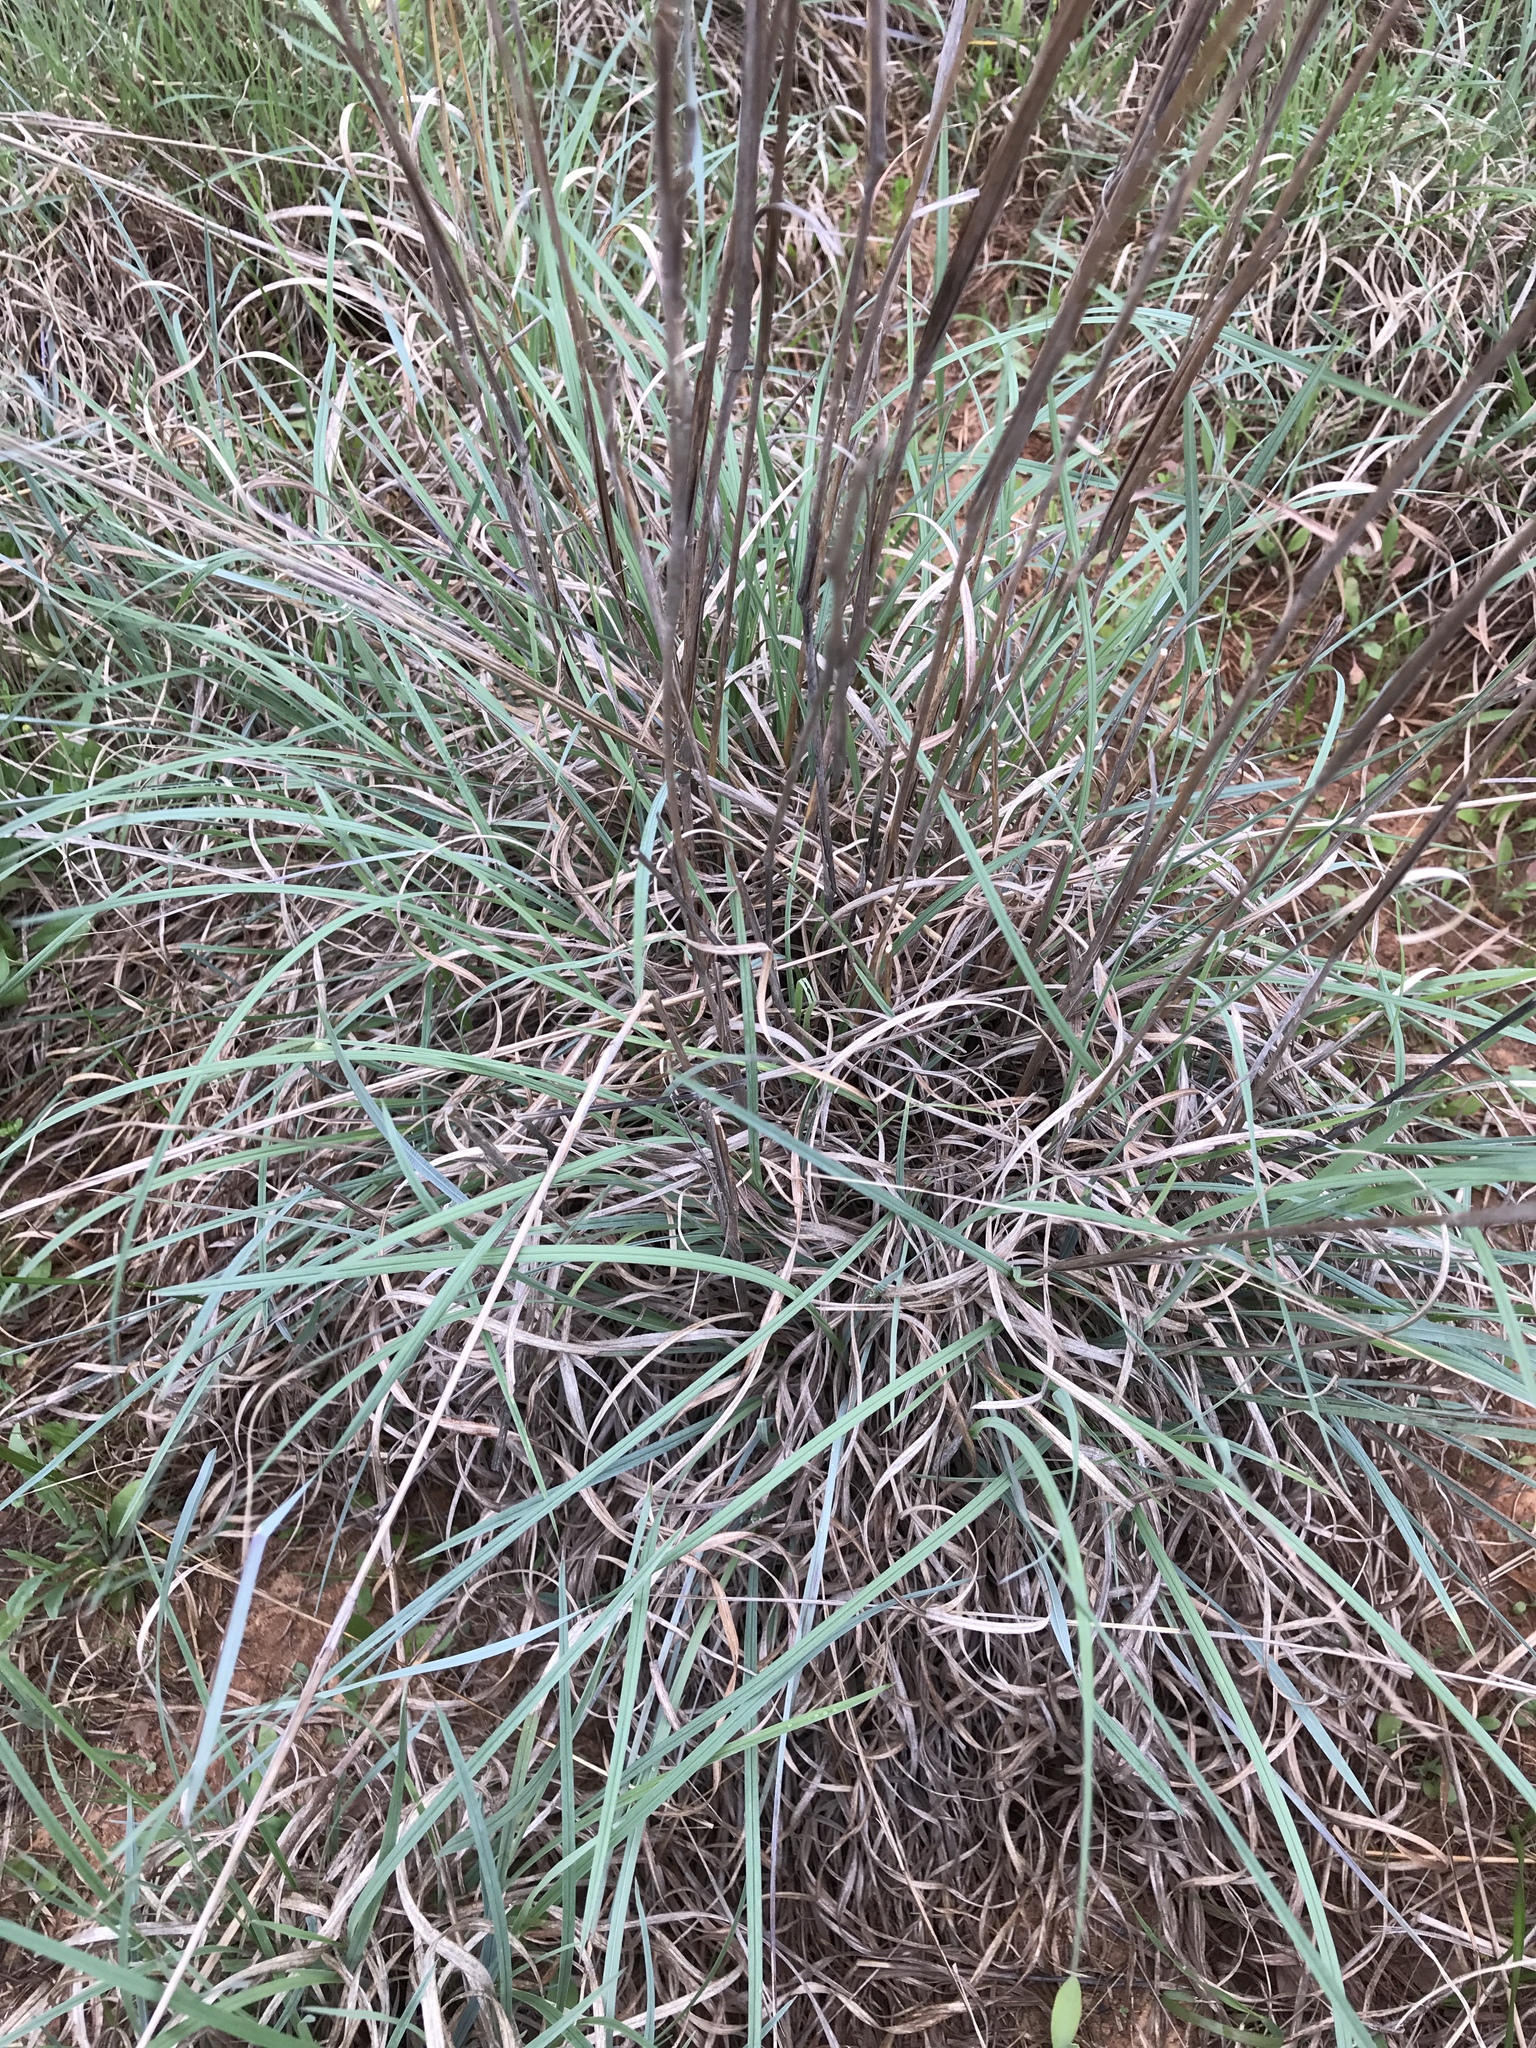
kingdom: Plantae
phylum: Tracheophyta
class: Liliopsida
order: Poales
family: Poaceae
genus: Schizachyrium
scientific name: Schizachyrium scoparium
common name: Little bluestem
